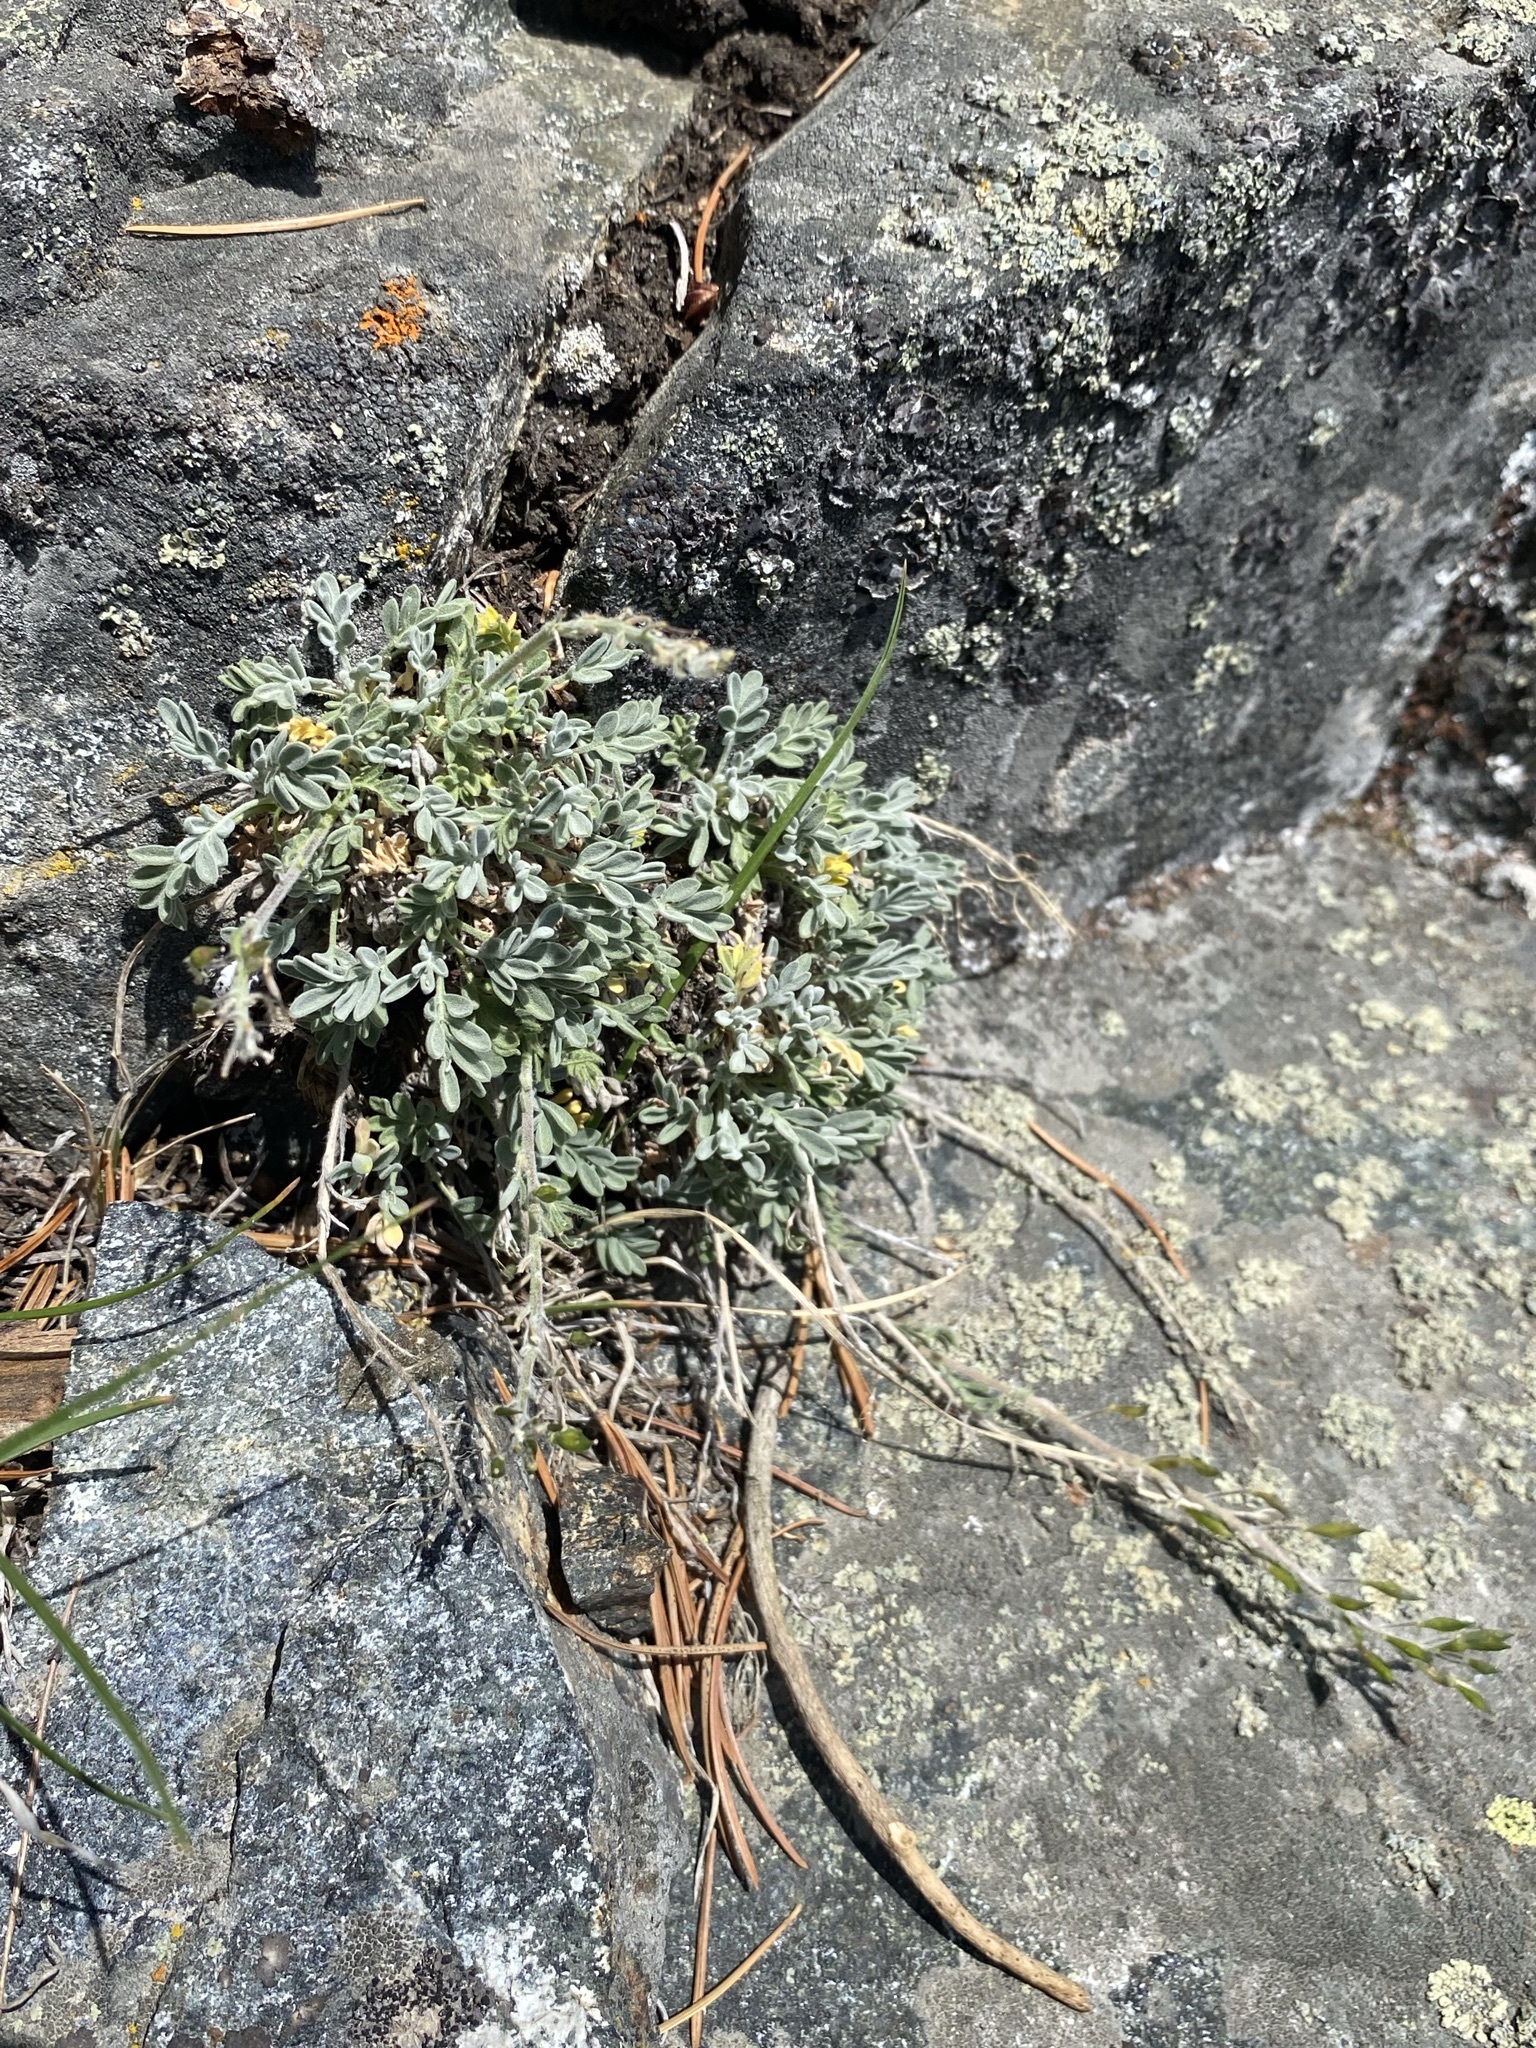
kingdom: Plantae
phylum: Tracheophyta
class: Magnoliopsida
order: Brassicales
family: Brassicaceae
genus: Smelowskia
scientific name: Smelowskia americana
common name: American false candytuft
